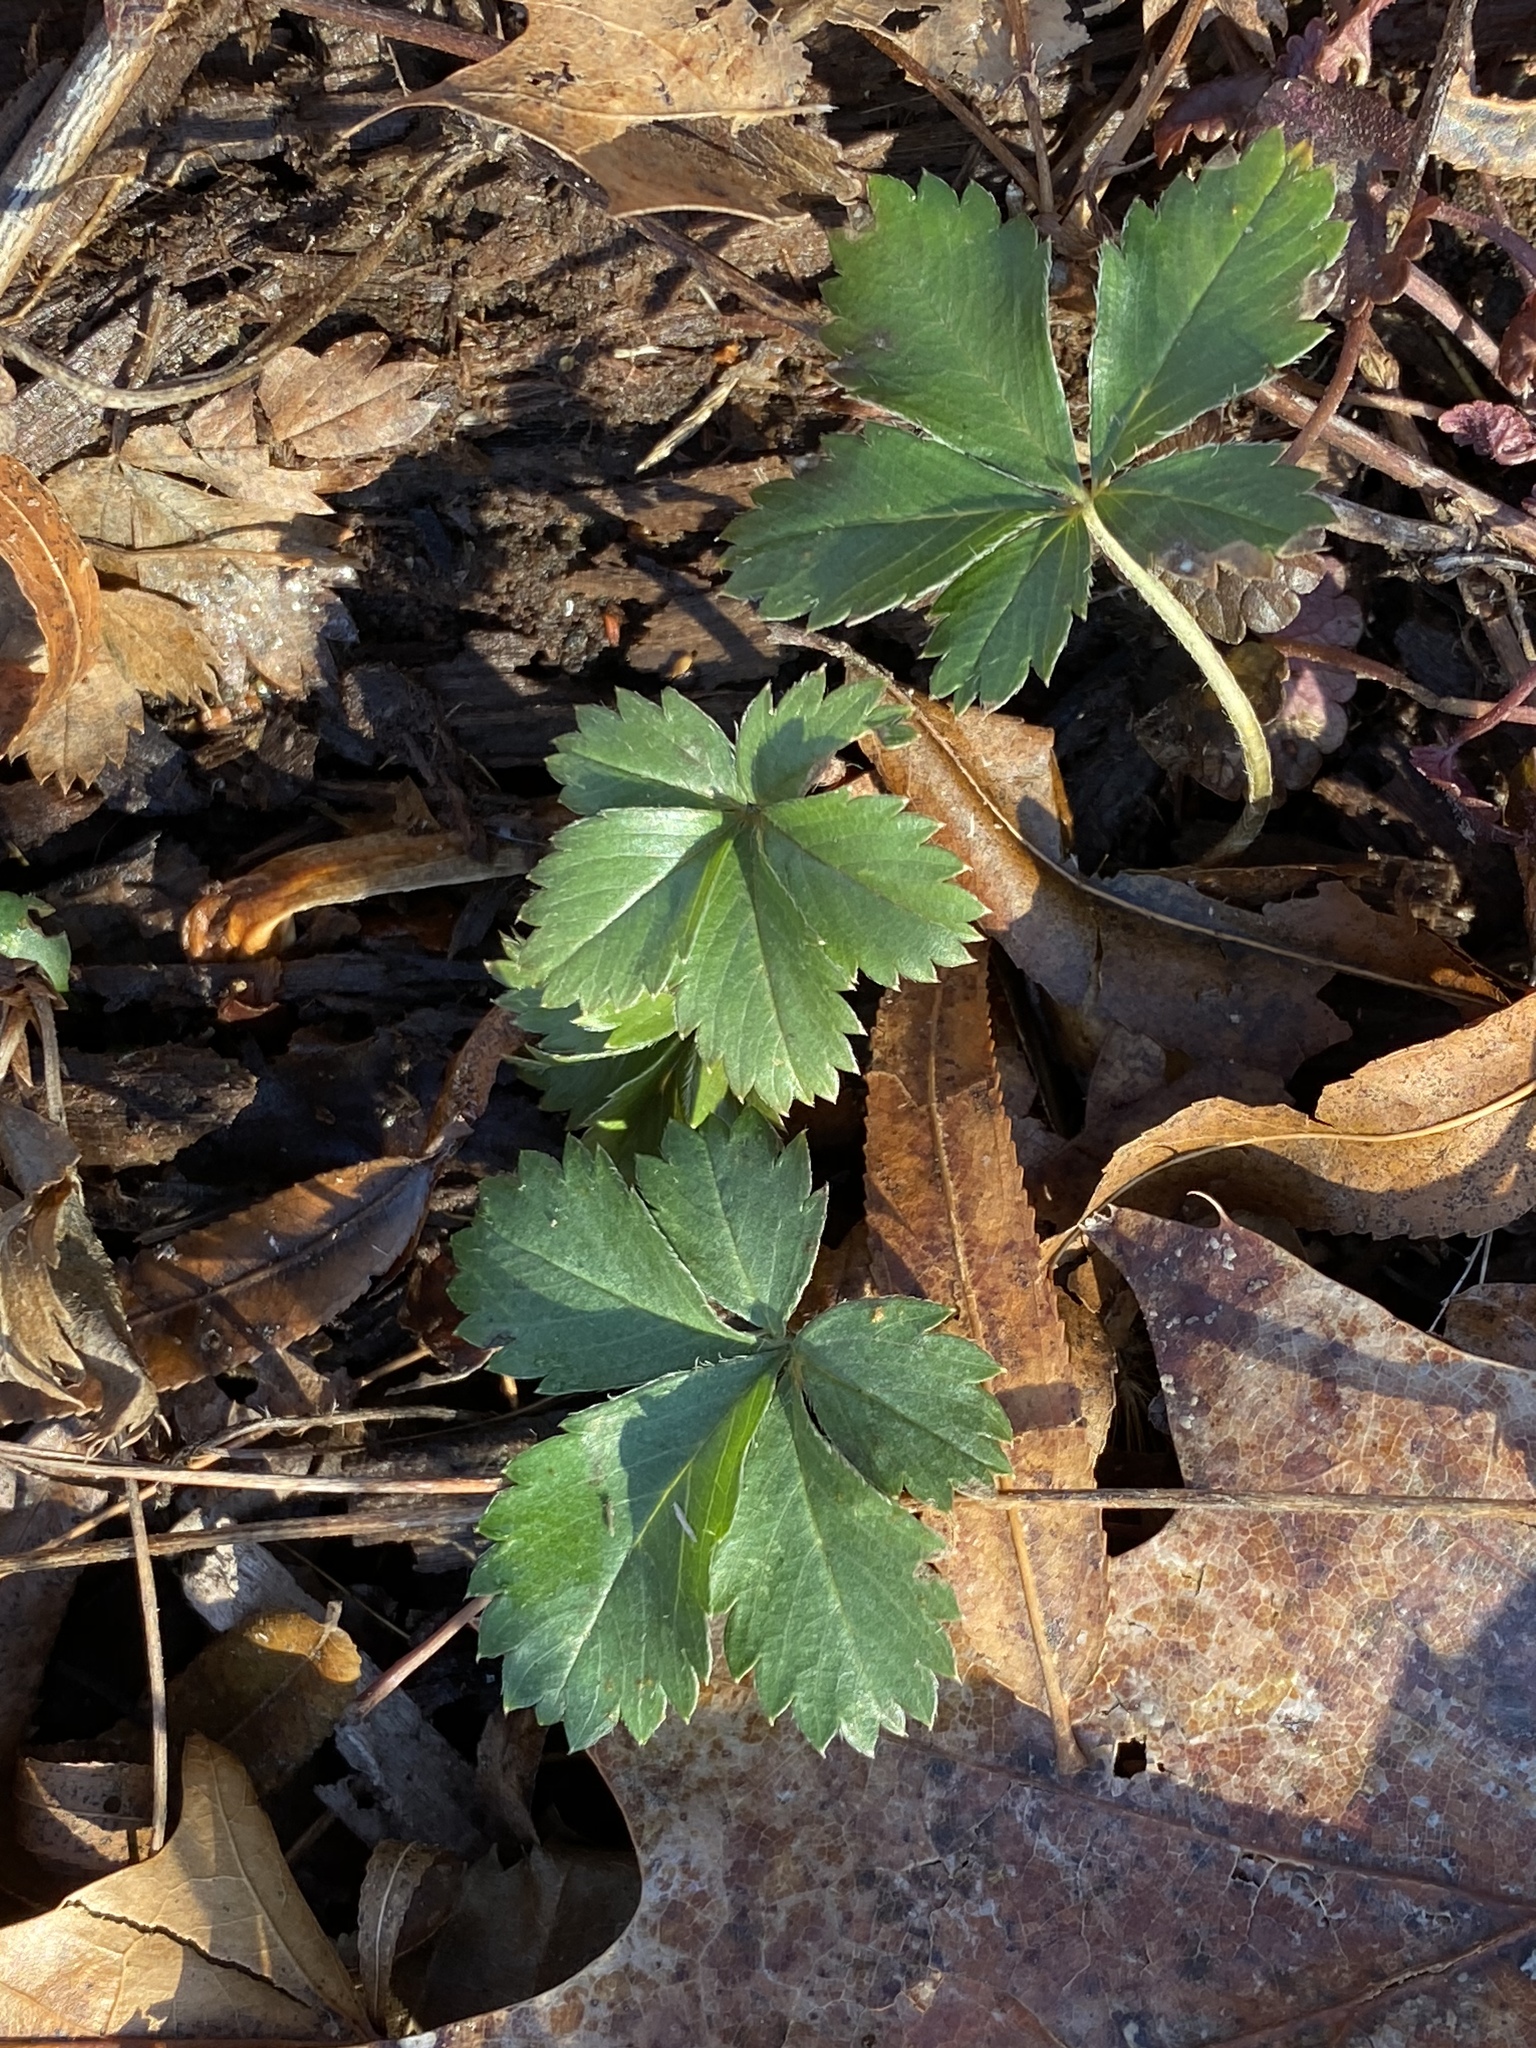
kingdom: Plantae
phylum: Tracheophyta
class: Magnoliopsida
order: Rosales
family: Rosaceae
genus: Potentilla
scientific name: Potentilla canadensis
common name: Canada cinquefoil
